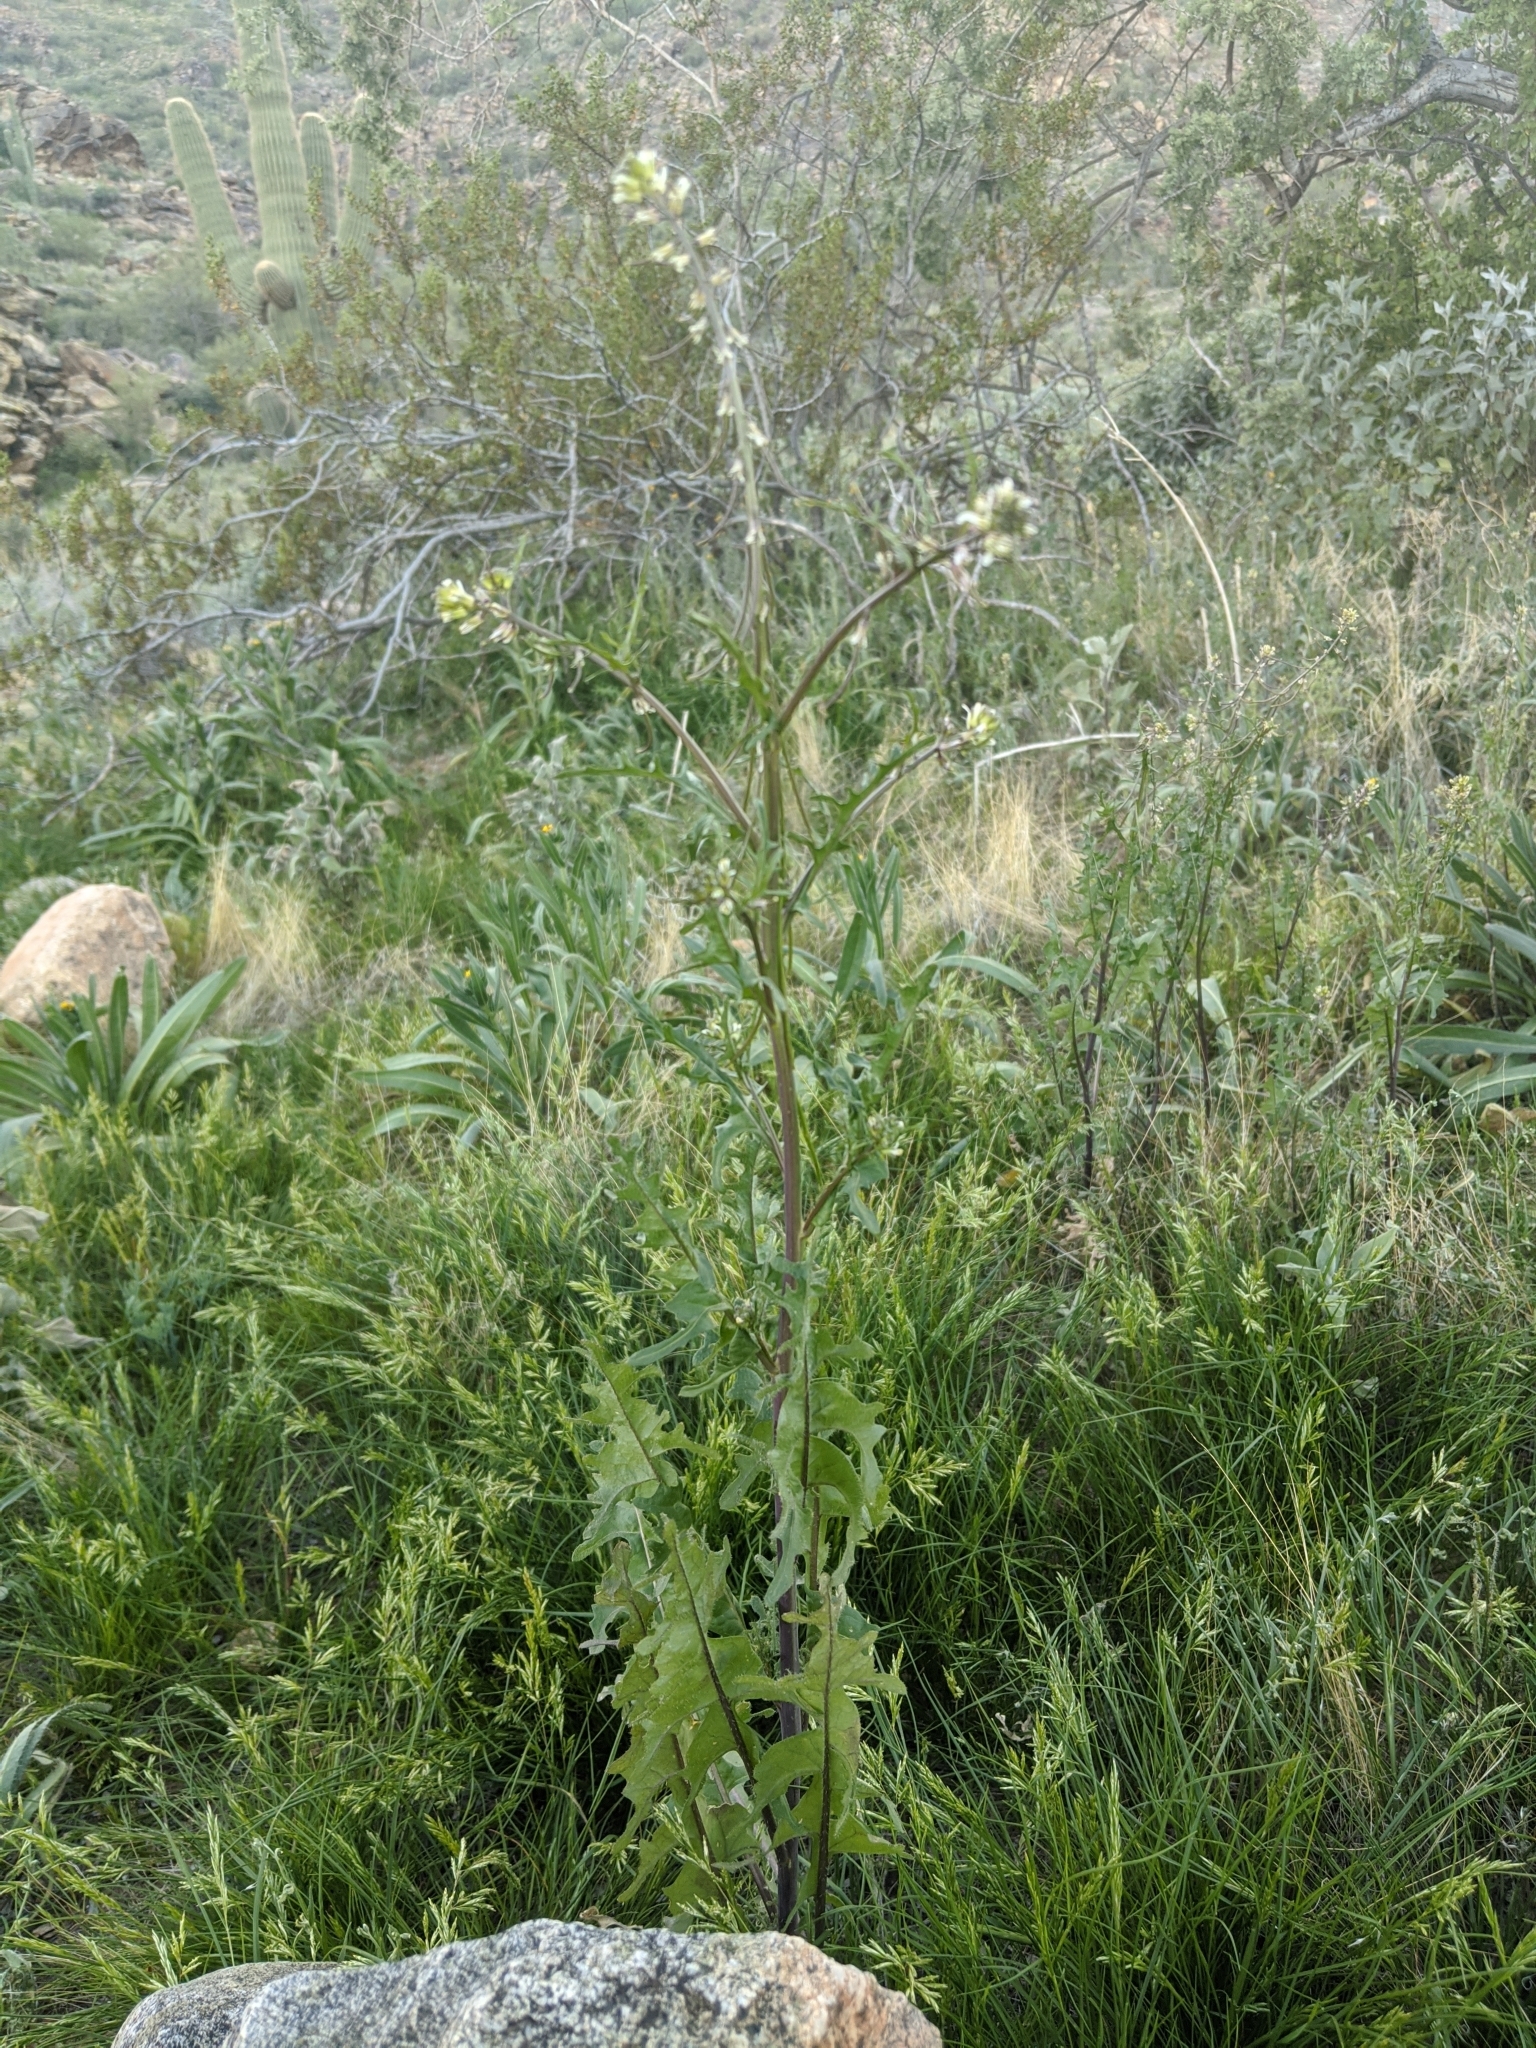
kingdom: Plantae
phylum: Tracheophyta
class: Magnoliopsida
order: Brassicales
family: Brassicaceae
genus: Streptanthus
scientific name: Streptanthus lasiophyllus
